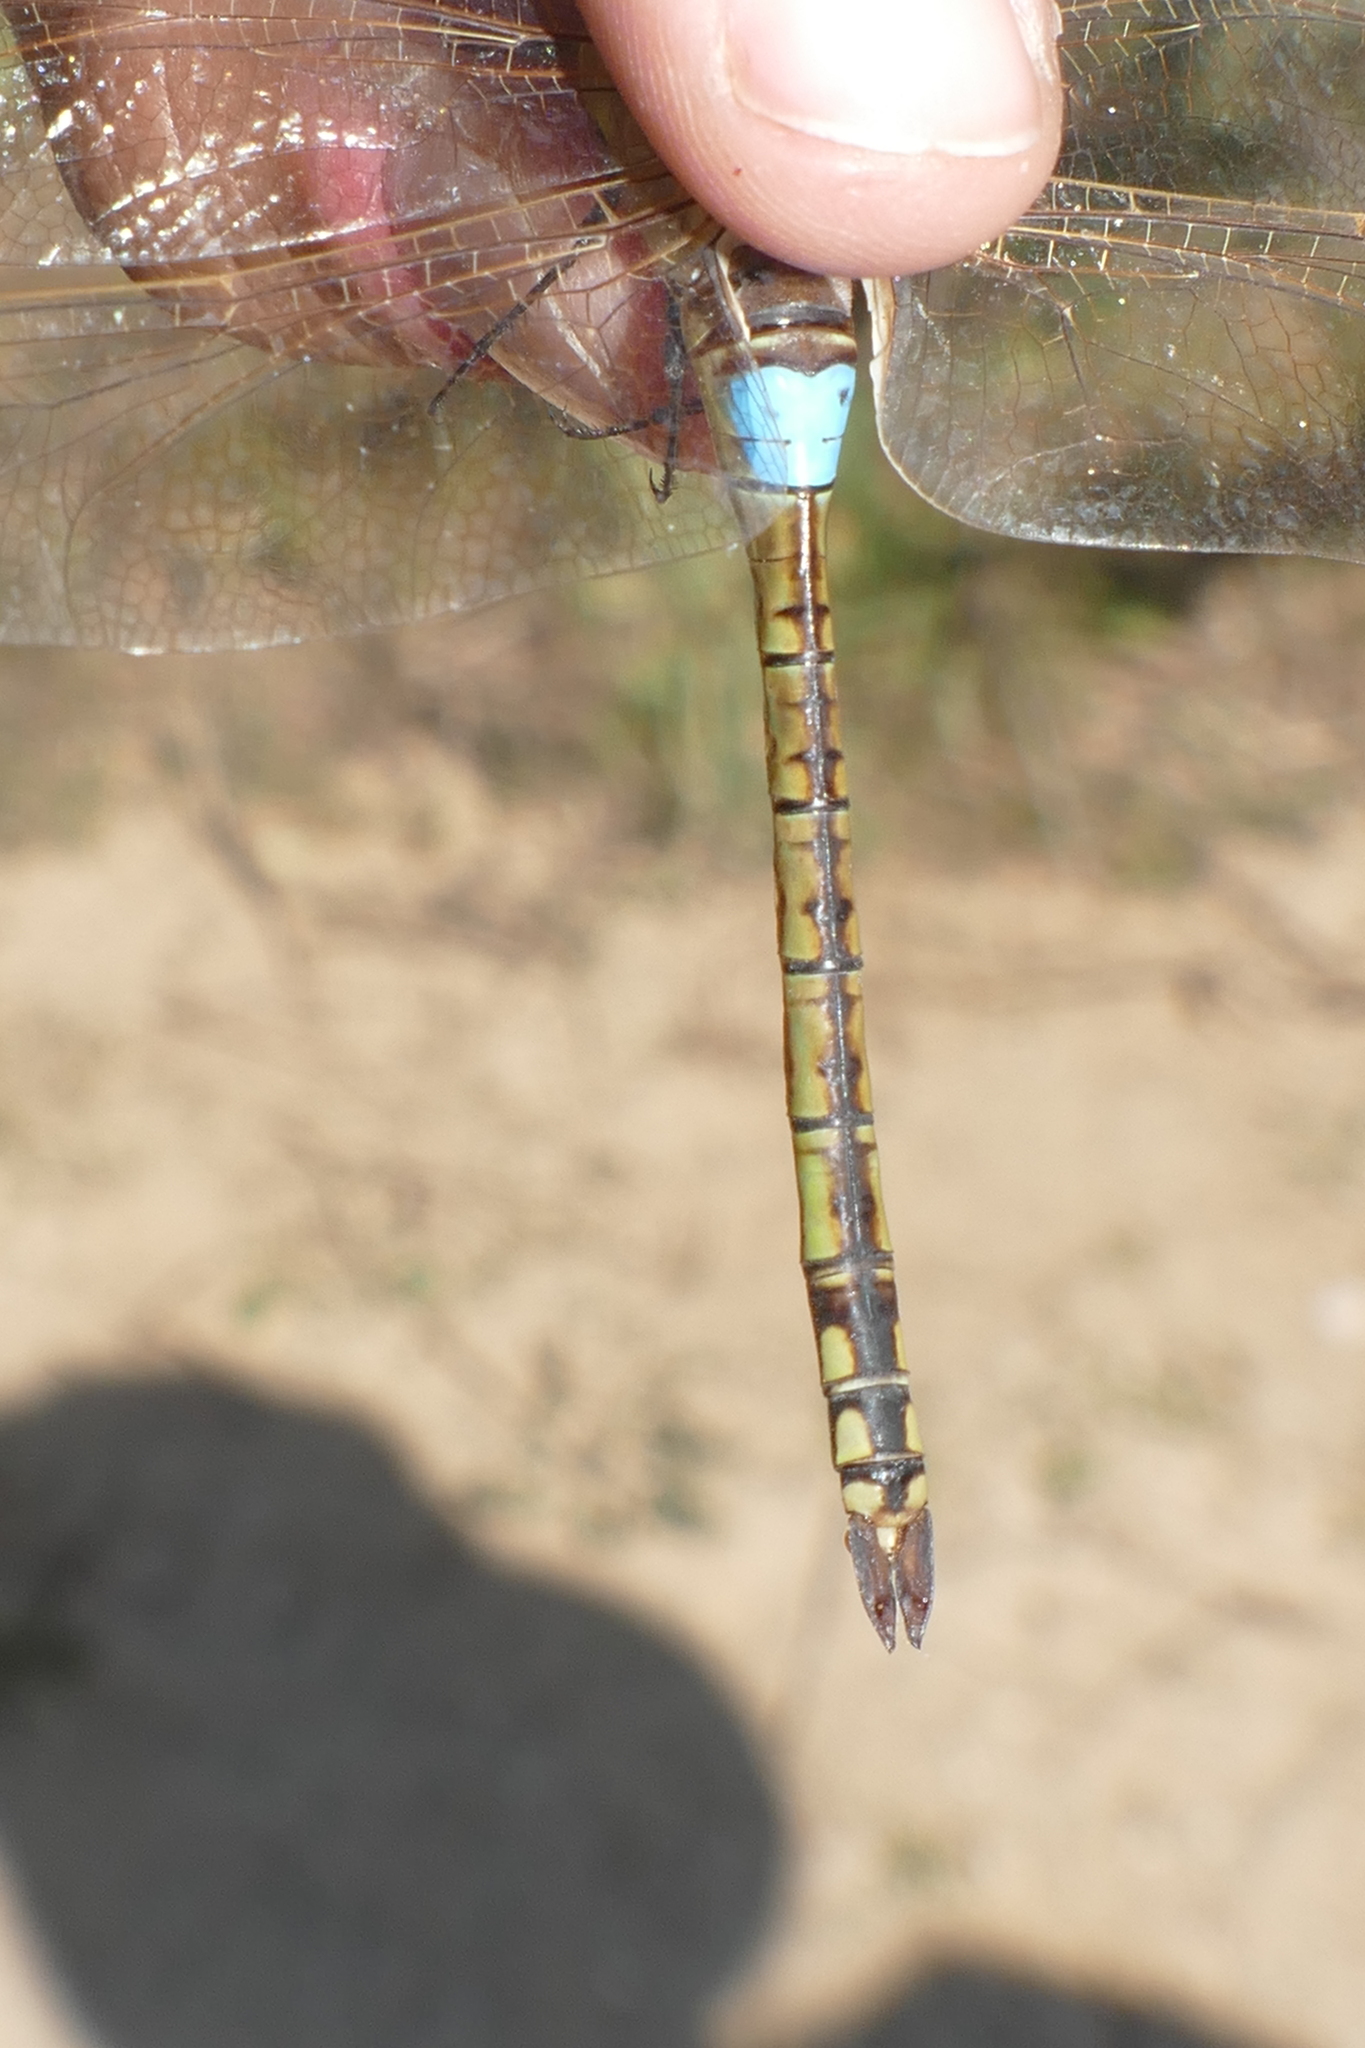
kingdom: Animalia
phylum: Arthropoda
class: Insecta
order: Odonata
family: Aeshnidae
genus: Anax
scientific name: Anax ephippiger
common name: Vagrant emperor
